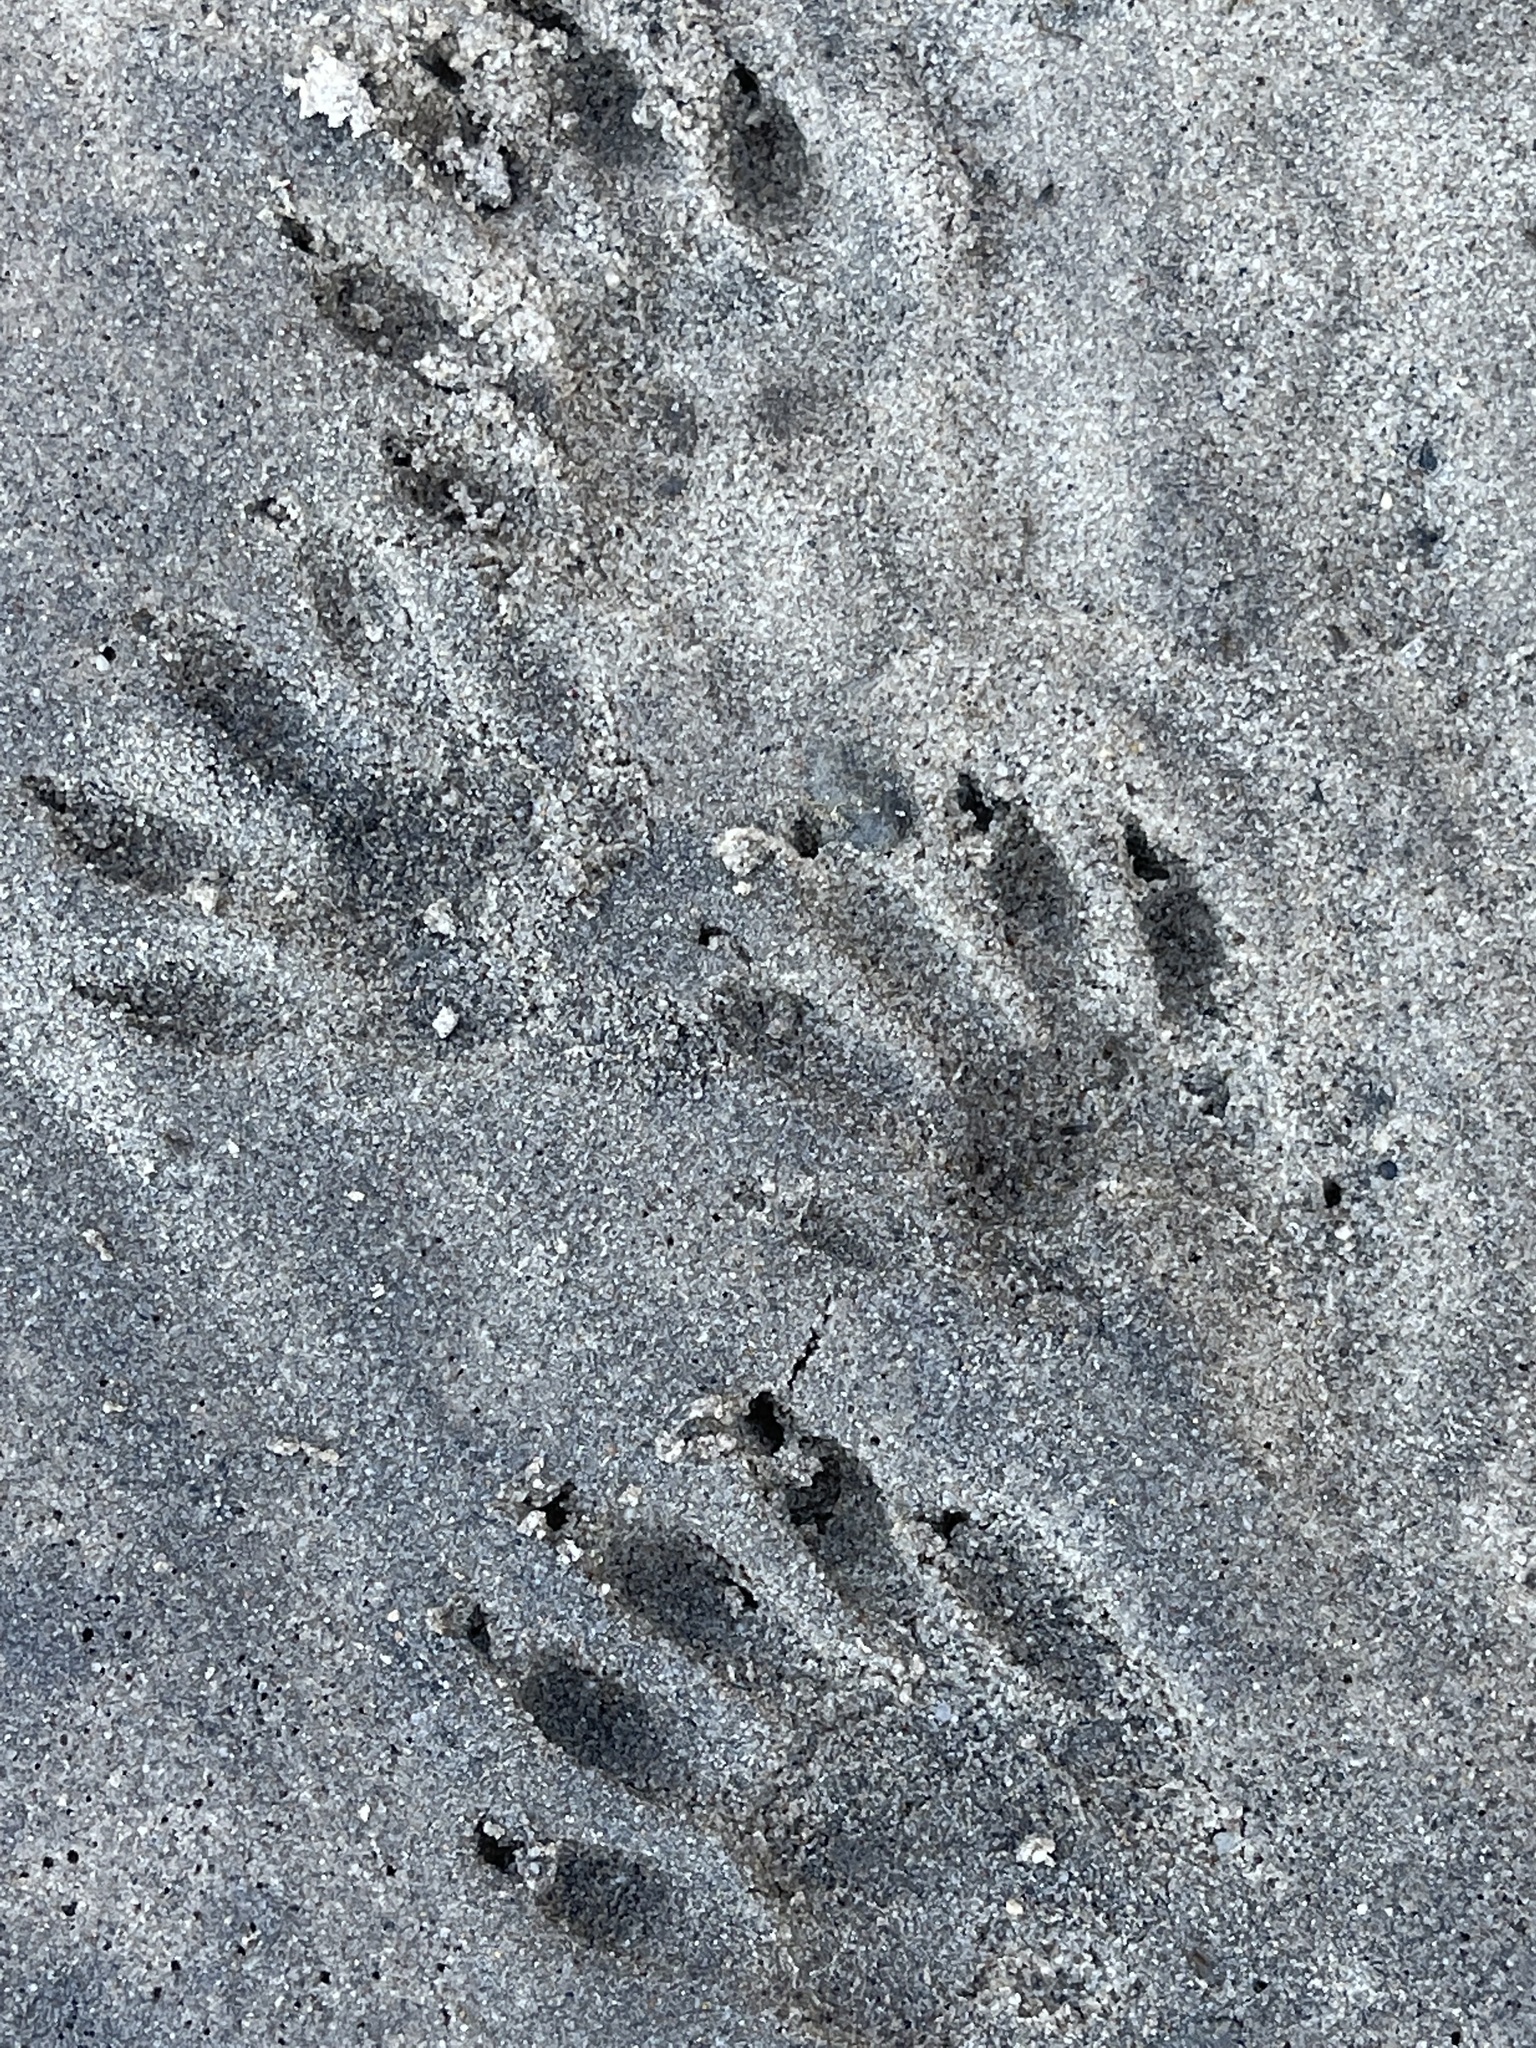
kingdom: Animalia
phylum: Chordata
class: Mammalia
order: Carnivora
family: Procyonidae
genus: Procyon
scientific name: Procyon lotor
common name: Raccoon
